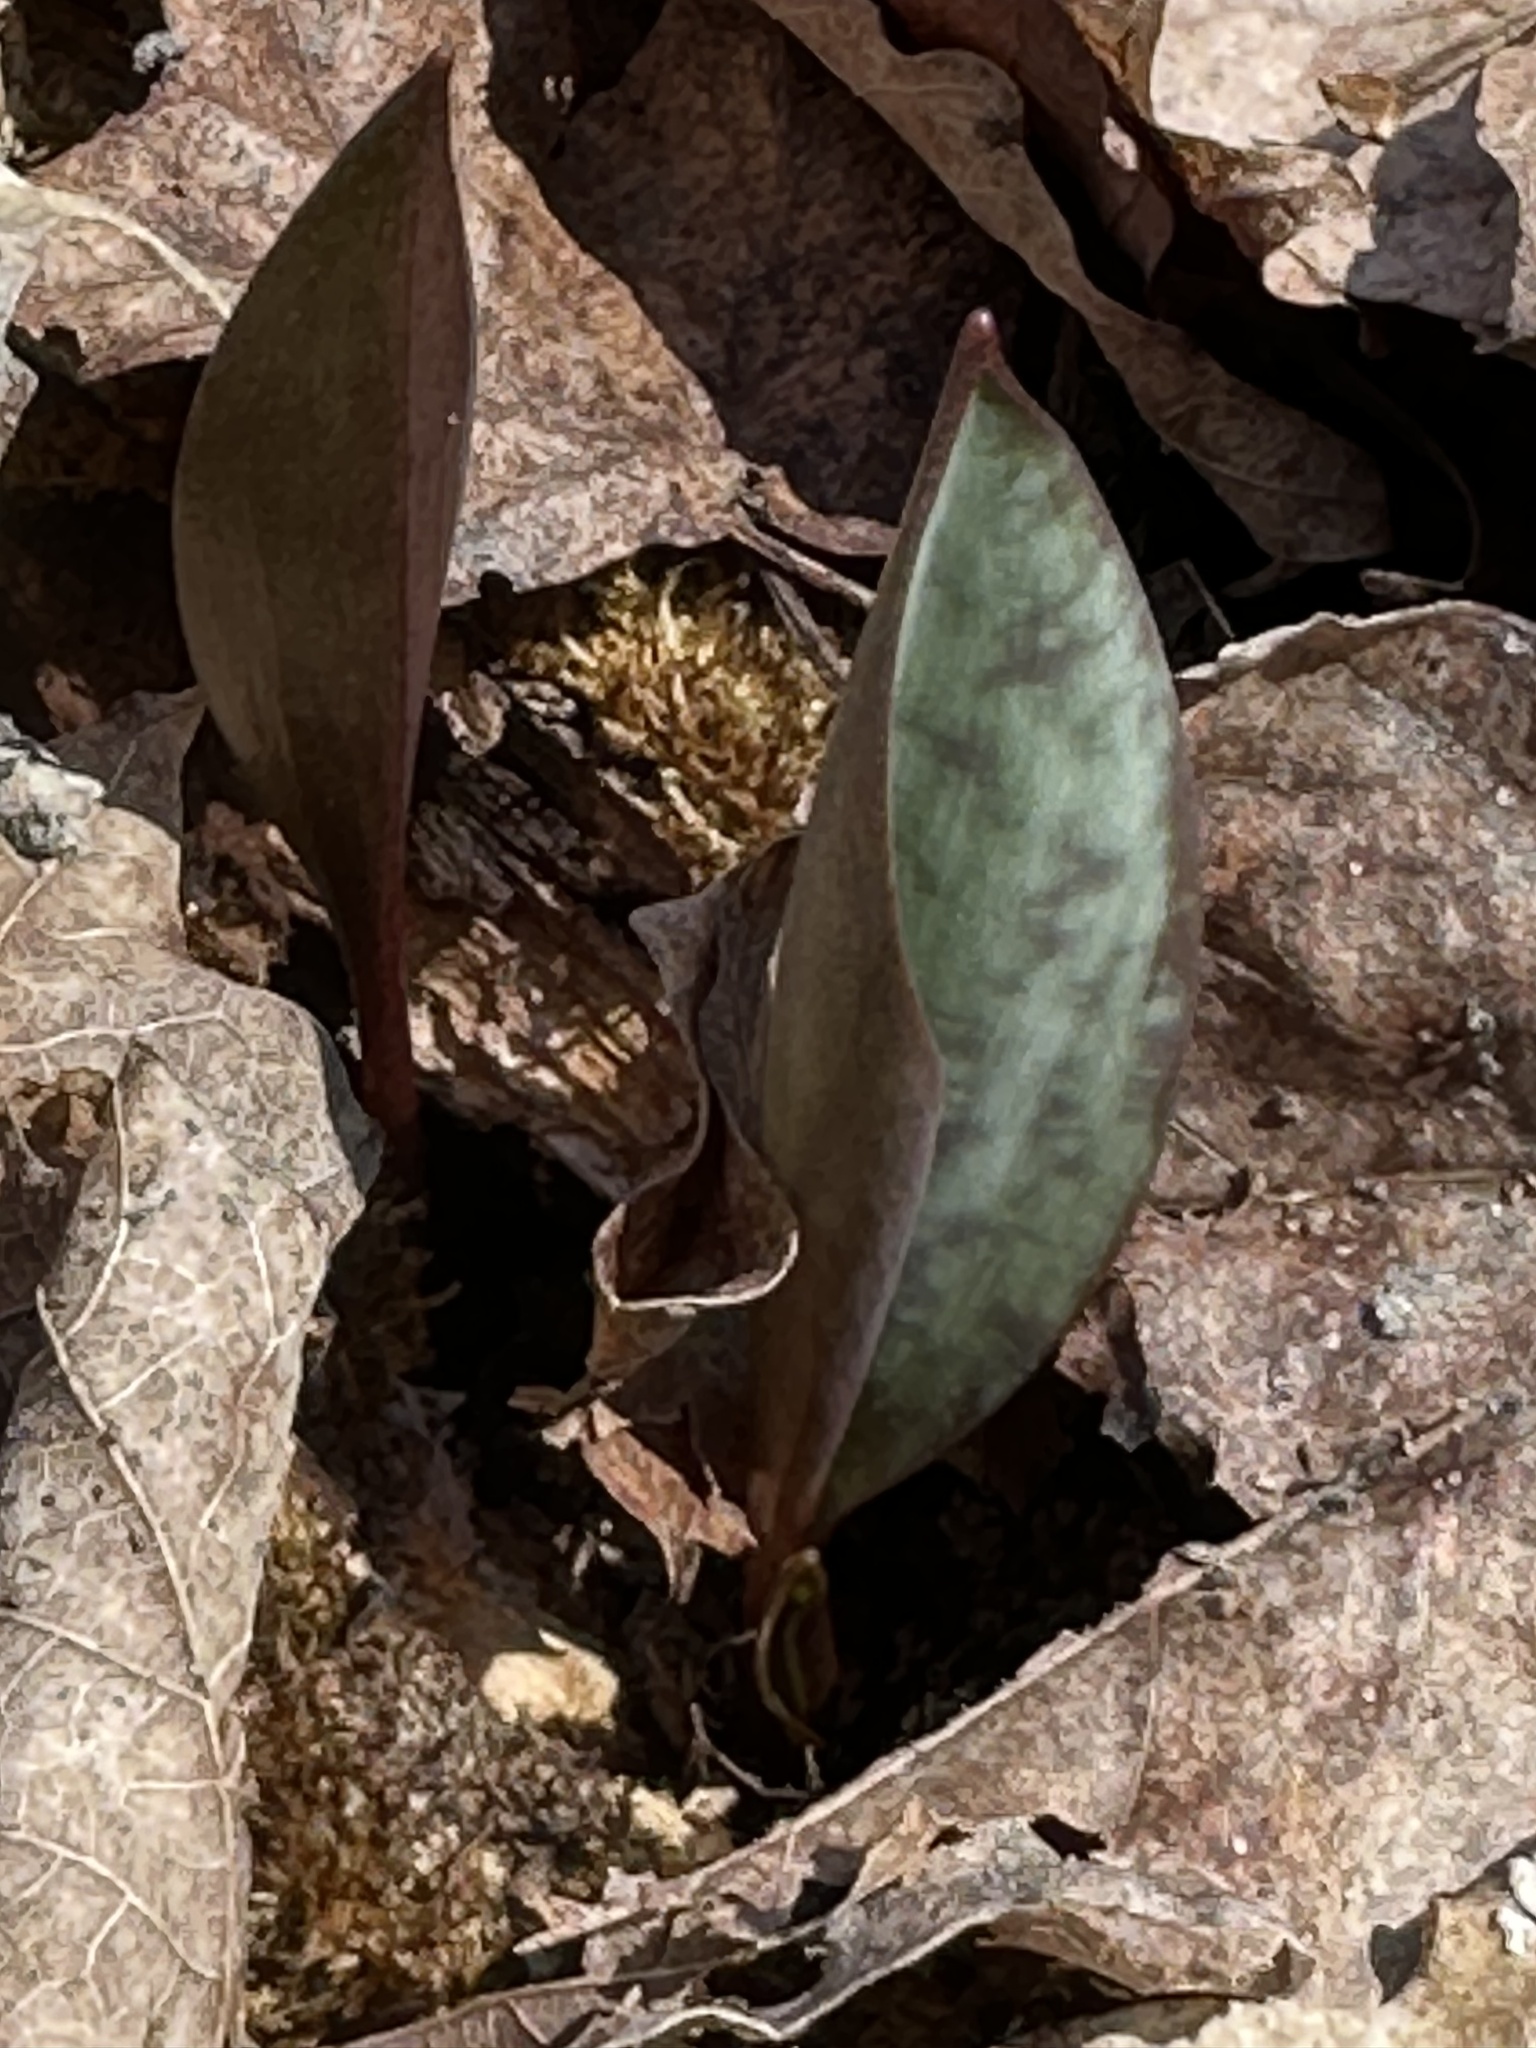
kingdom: Plantae
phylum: Tracheophyta
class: Liliopsida
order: Liliales
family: Liliaceae
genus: Erythronium
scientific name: Erythronium americanum
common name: Yellow adder's-tongue
